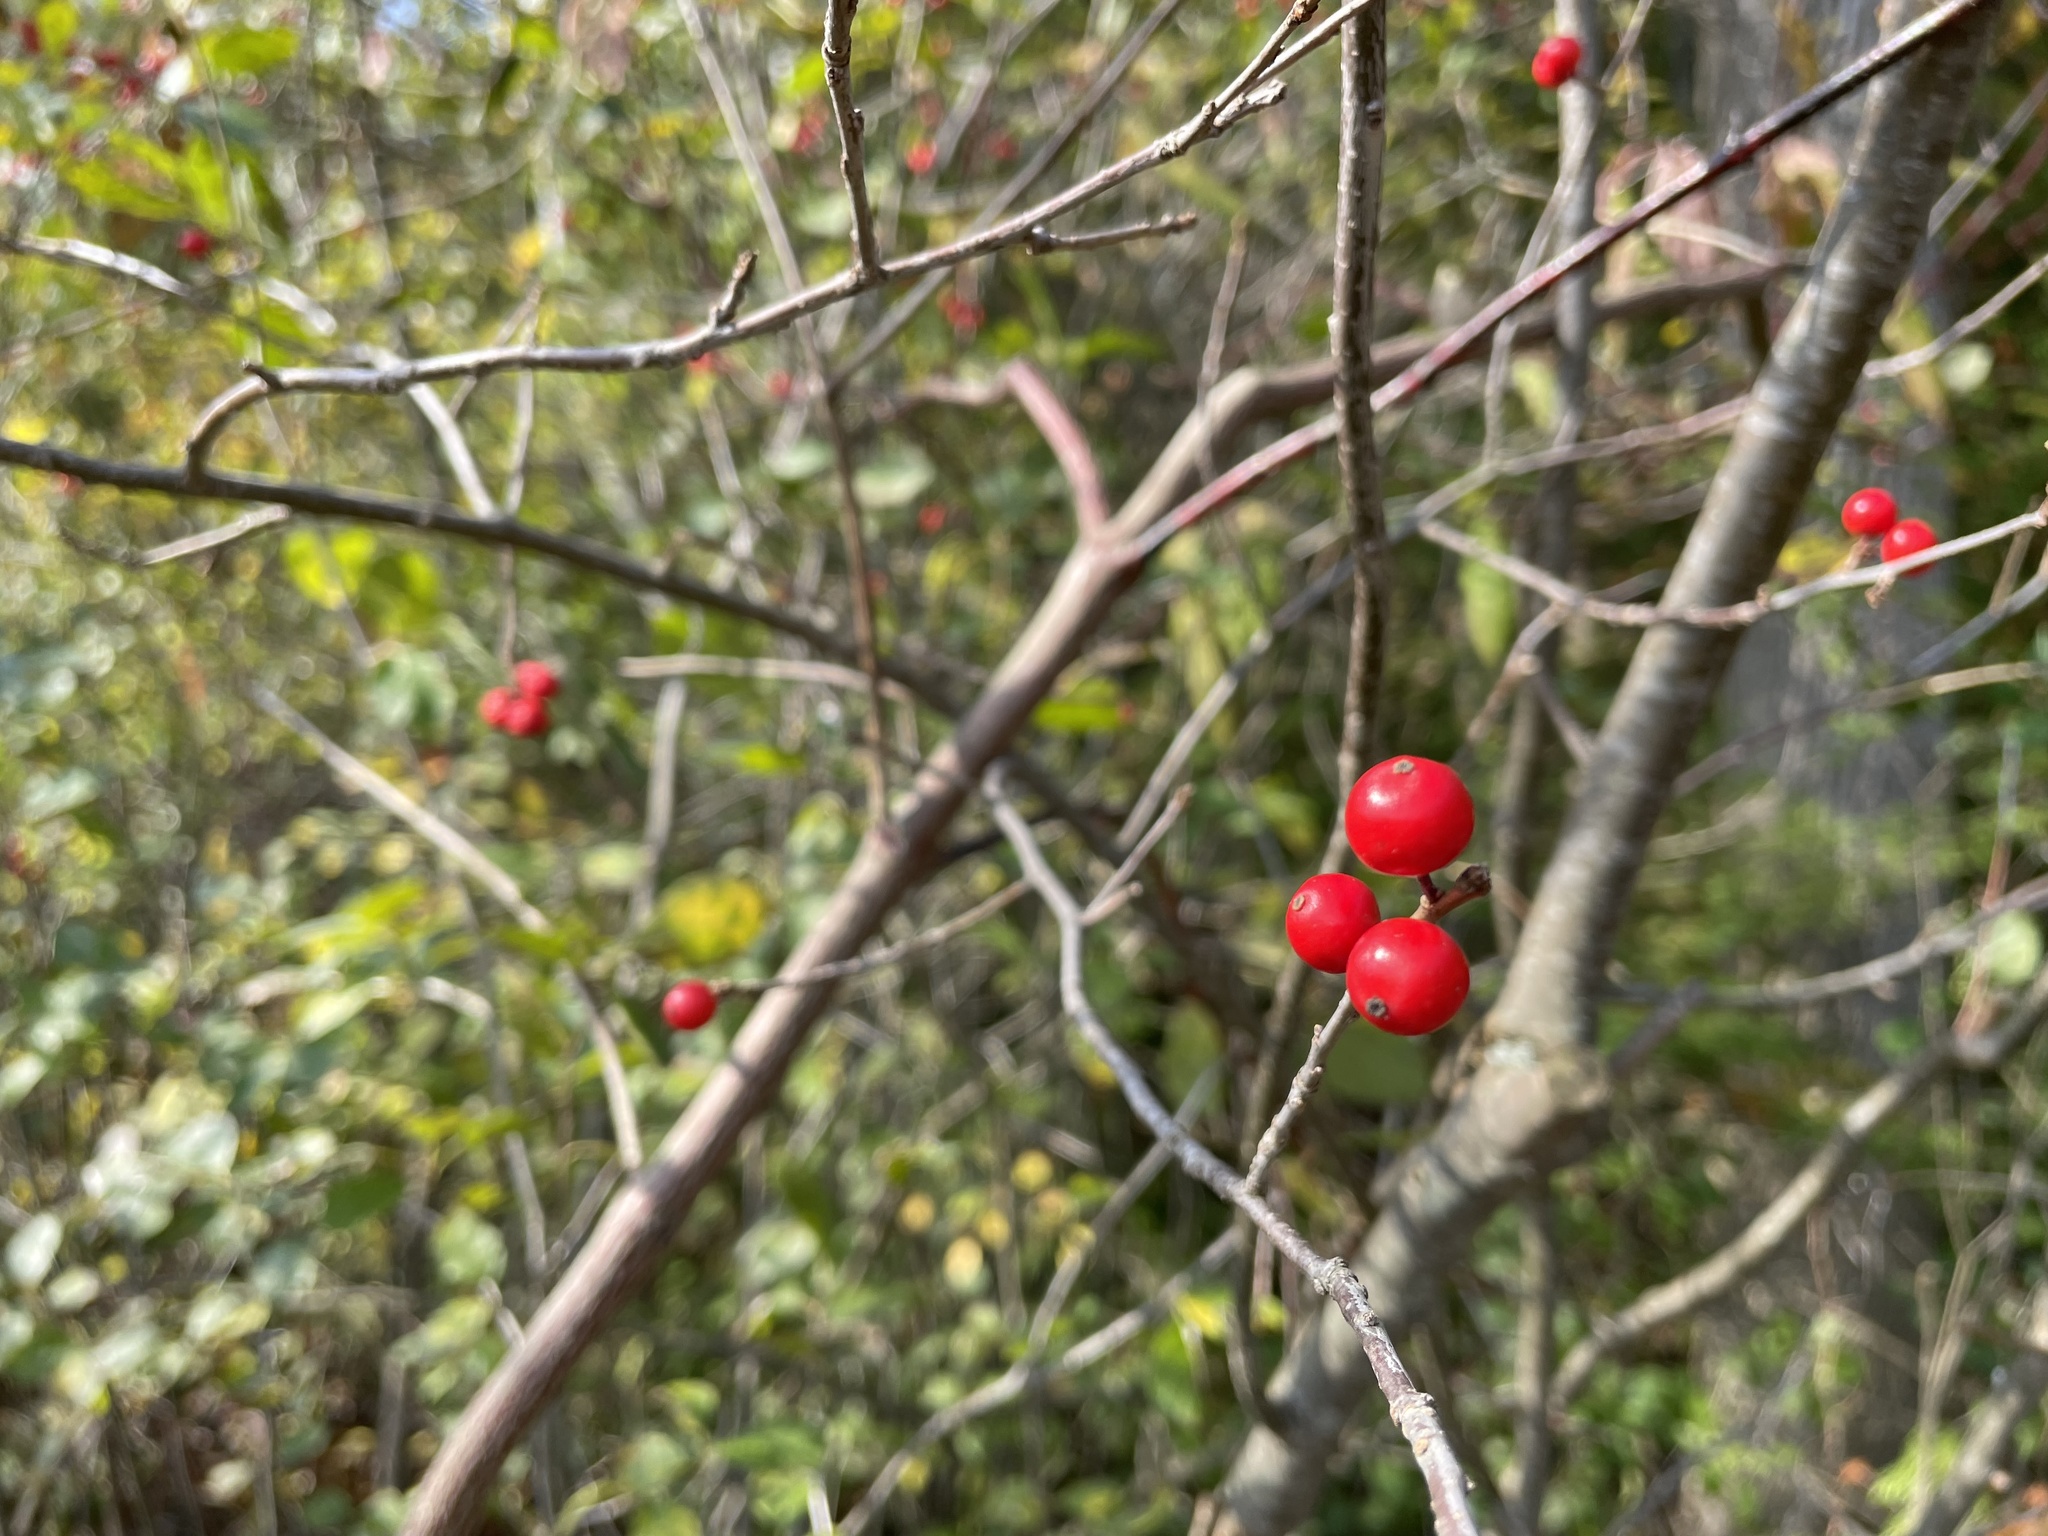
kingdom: Plantae
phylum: Tracheophyta
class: Magnoliopsida
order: Aquifoliales
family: Aquifoliaceae
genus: Ilex
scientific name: Ilex verticillata
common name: Virginia winterberry
